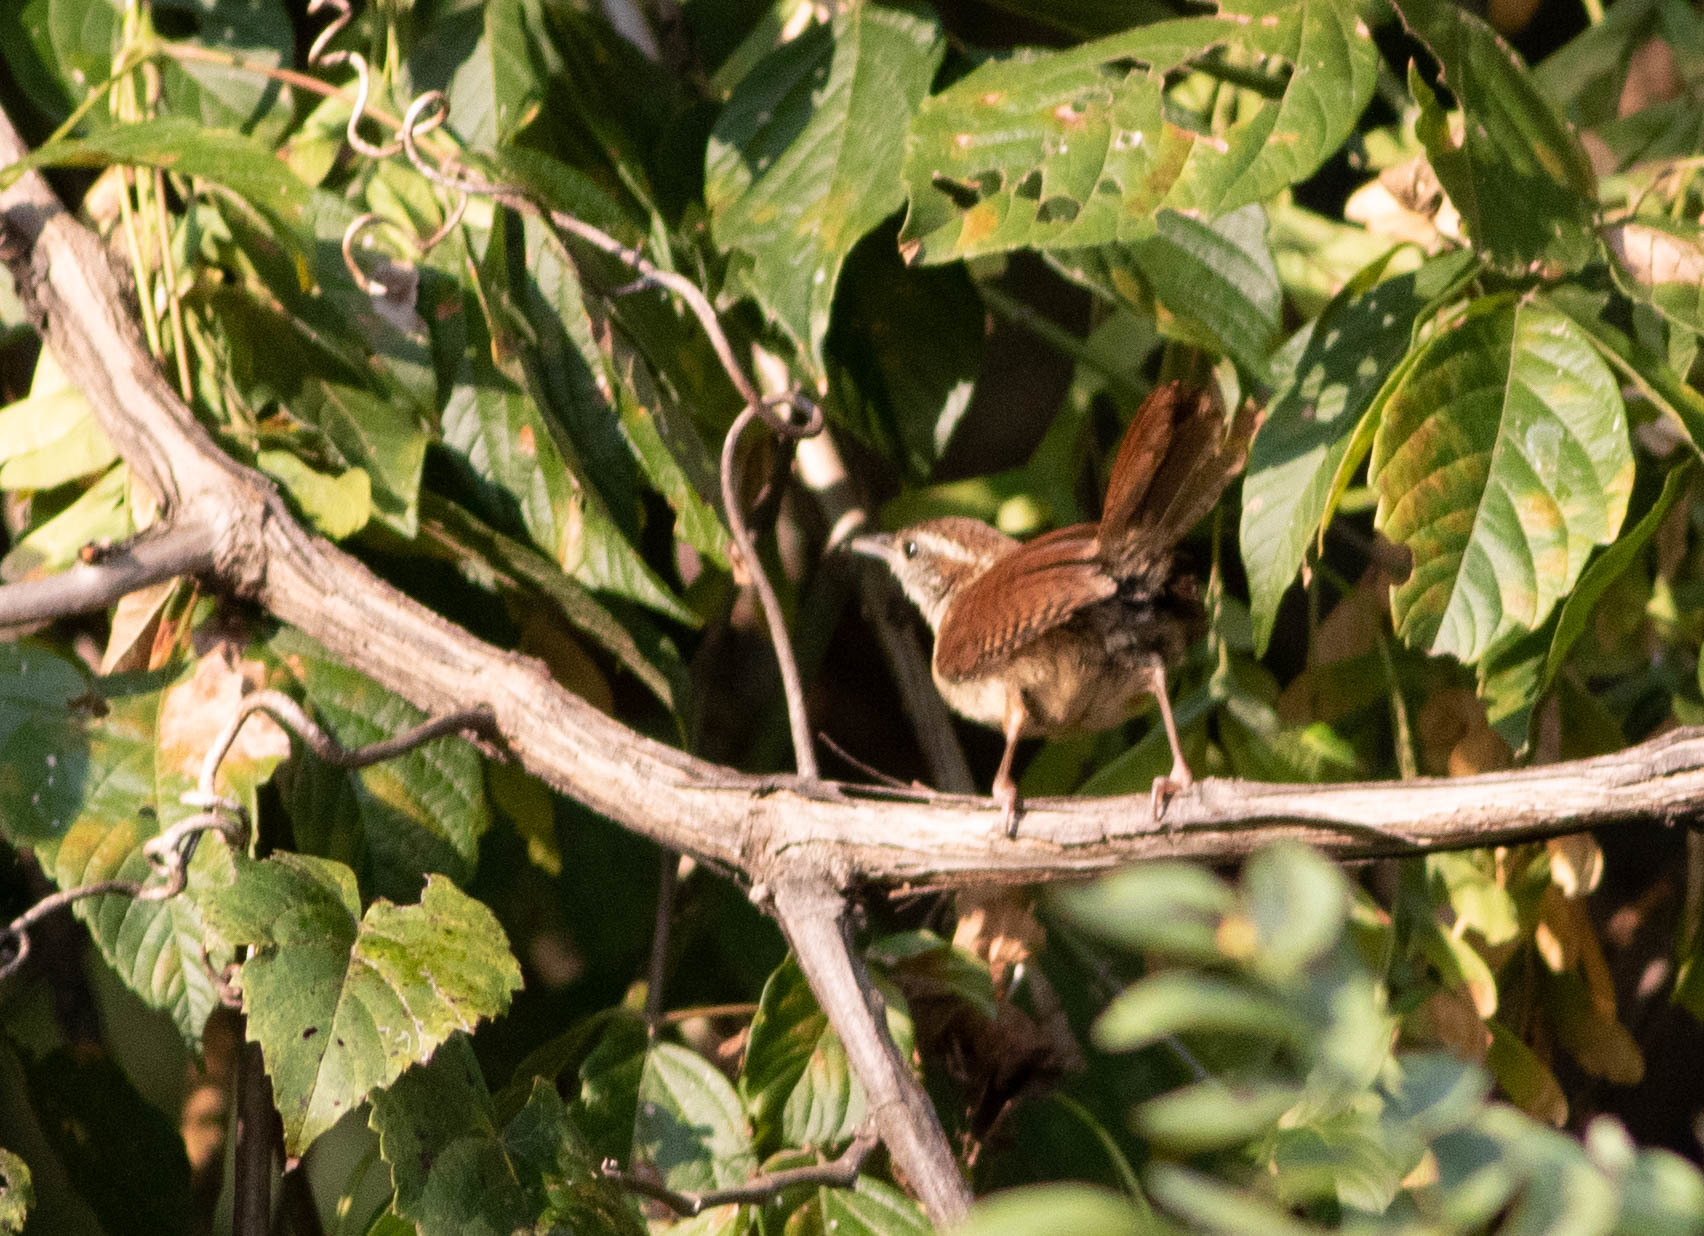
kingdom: Animalia
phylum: Chordata
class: Aves
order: Passeriformes
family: Troglodytidae
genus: Thryothorus
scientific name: Thryothorus ludovicianus
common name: Carolina wren
